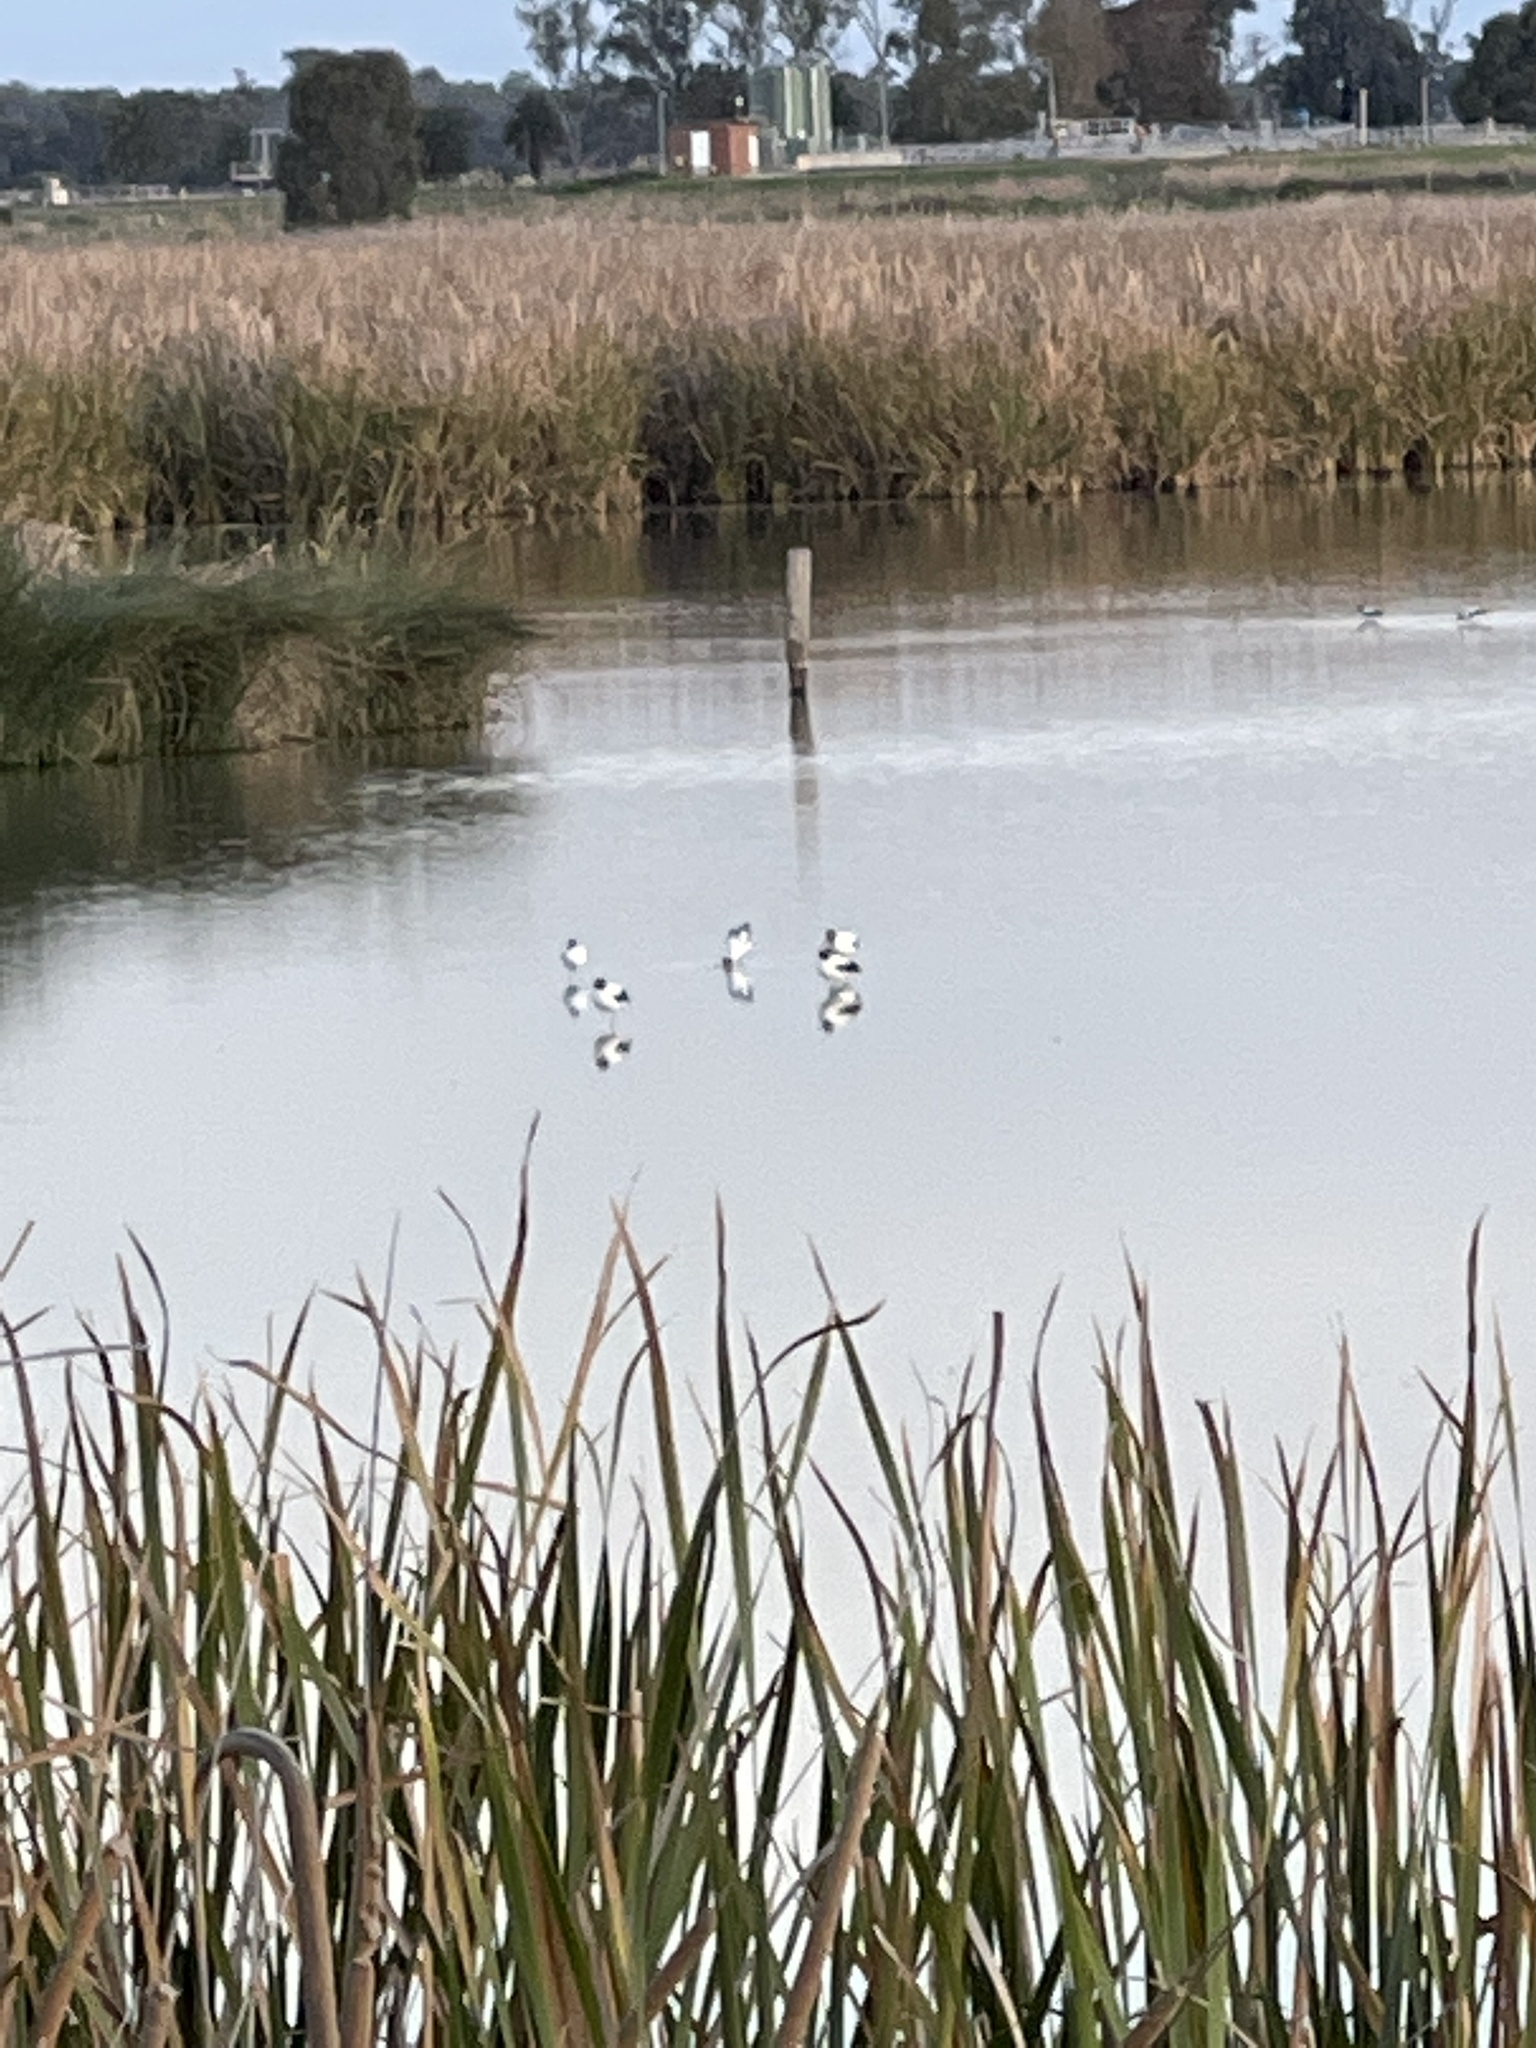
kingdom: Animalia
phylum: Chordata
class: Aves
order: Charadriiformes
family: Recurvirostridae
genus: Recurvirostra
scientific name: Recurvirostra novaehollandiae
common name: Red-necked avocet
